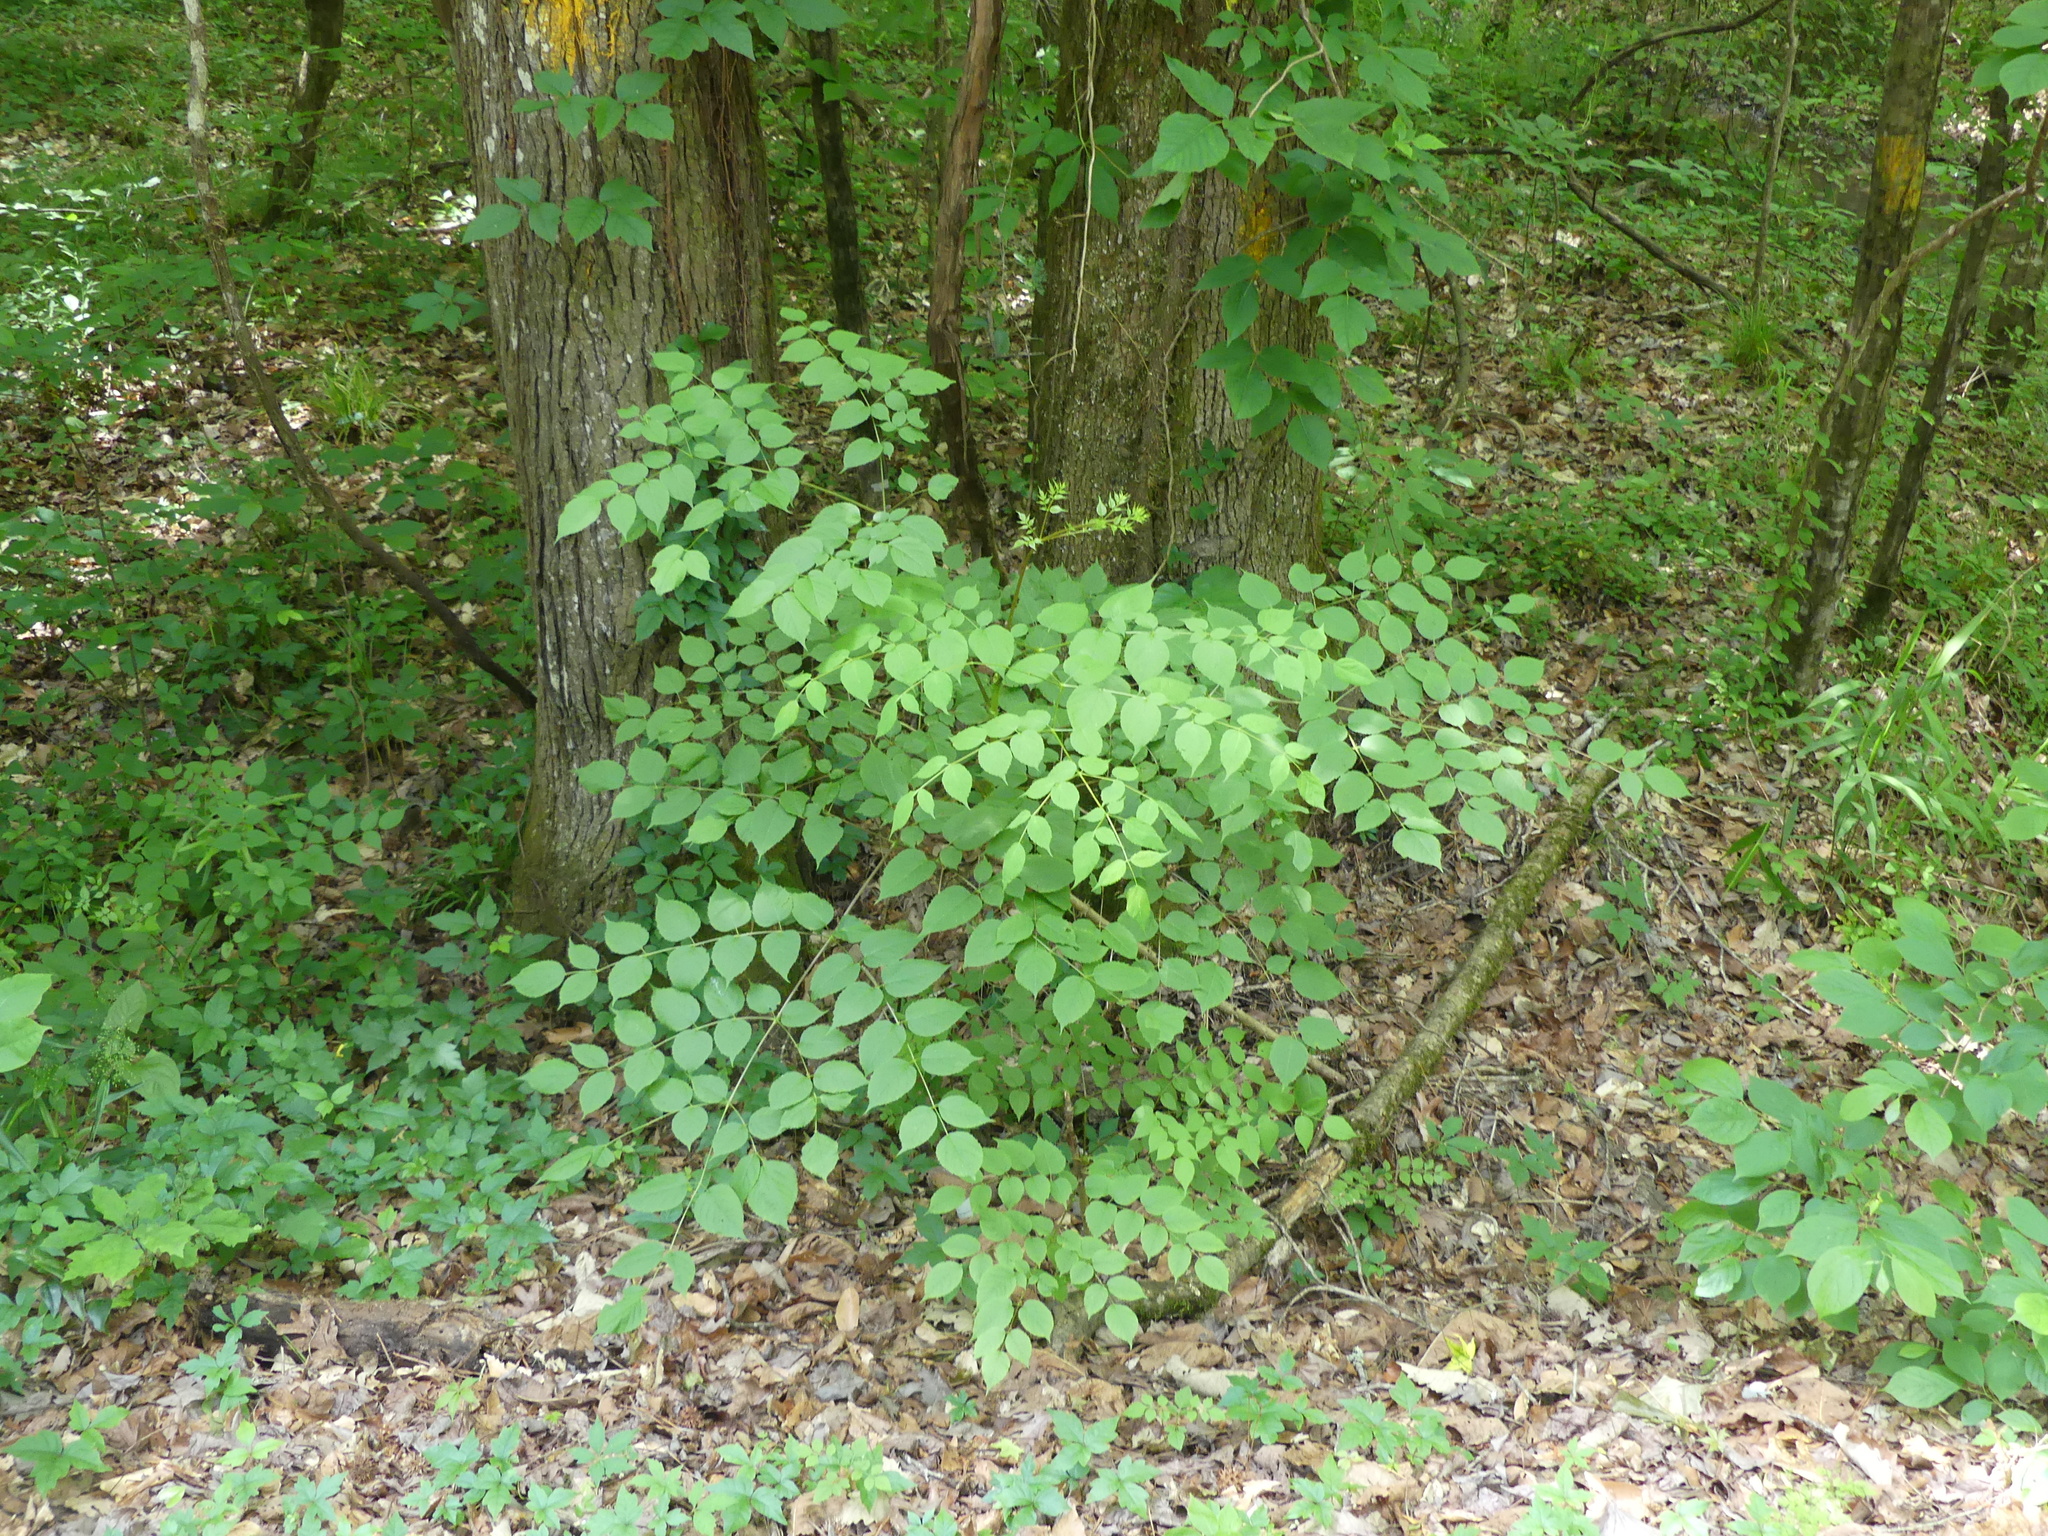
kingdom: Plantae
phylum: Tracheophyta
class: Magnoliopsida
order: Apiales
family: Araliaceae
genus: Aralia
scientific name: Aralia spinosa
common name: Hercules'-club
